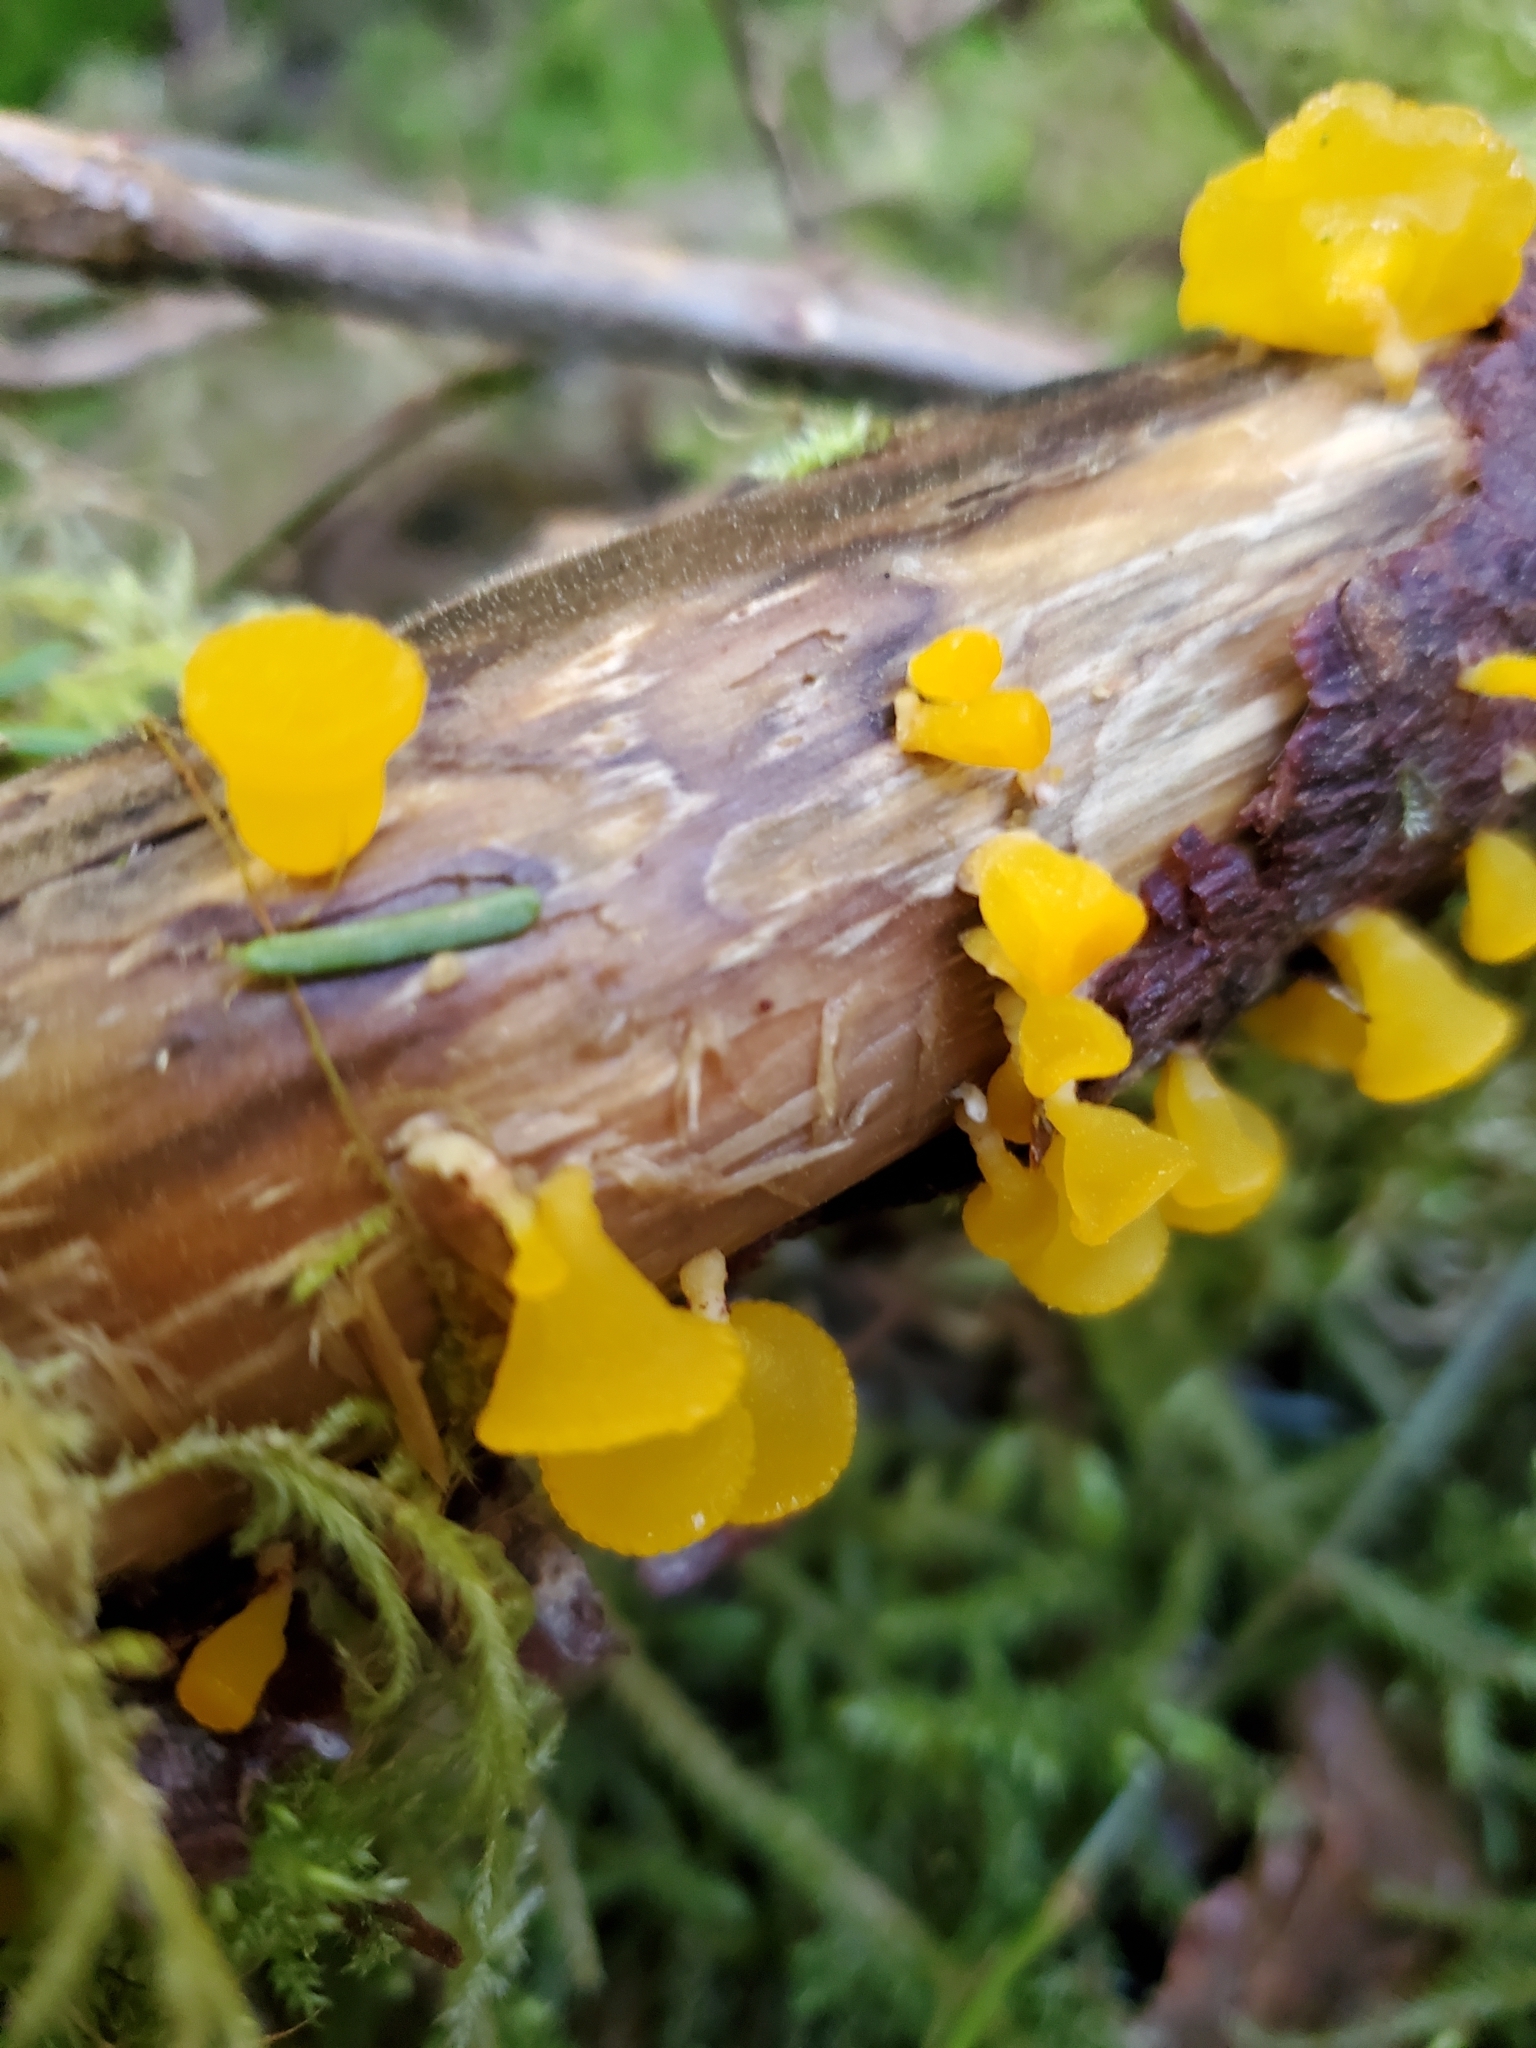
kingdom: Fungi
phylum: Basidiomycota
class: Dacrymycetes
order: Dacrymycetales
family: Dacrymycetaceae
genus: Guepiniopsis
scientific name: Guepiniopsis alpina
